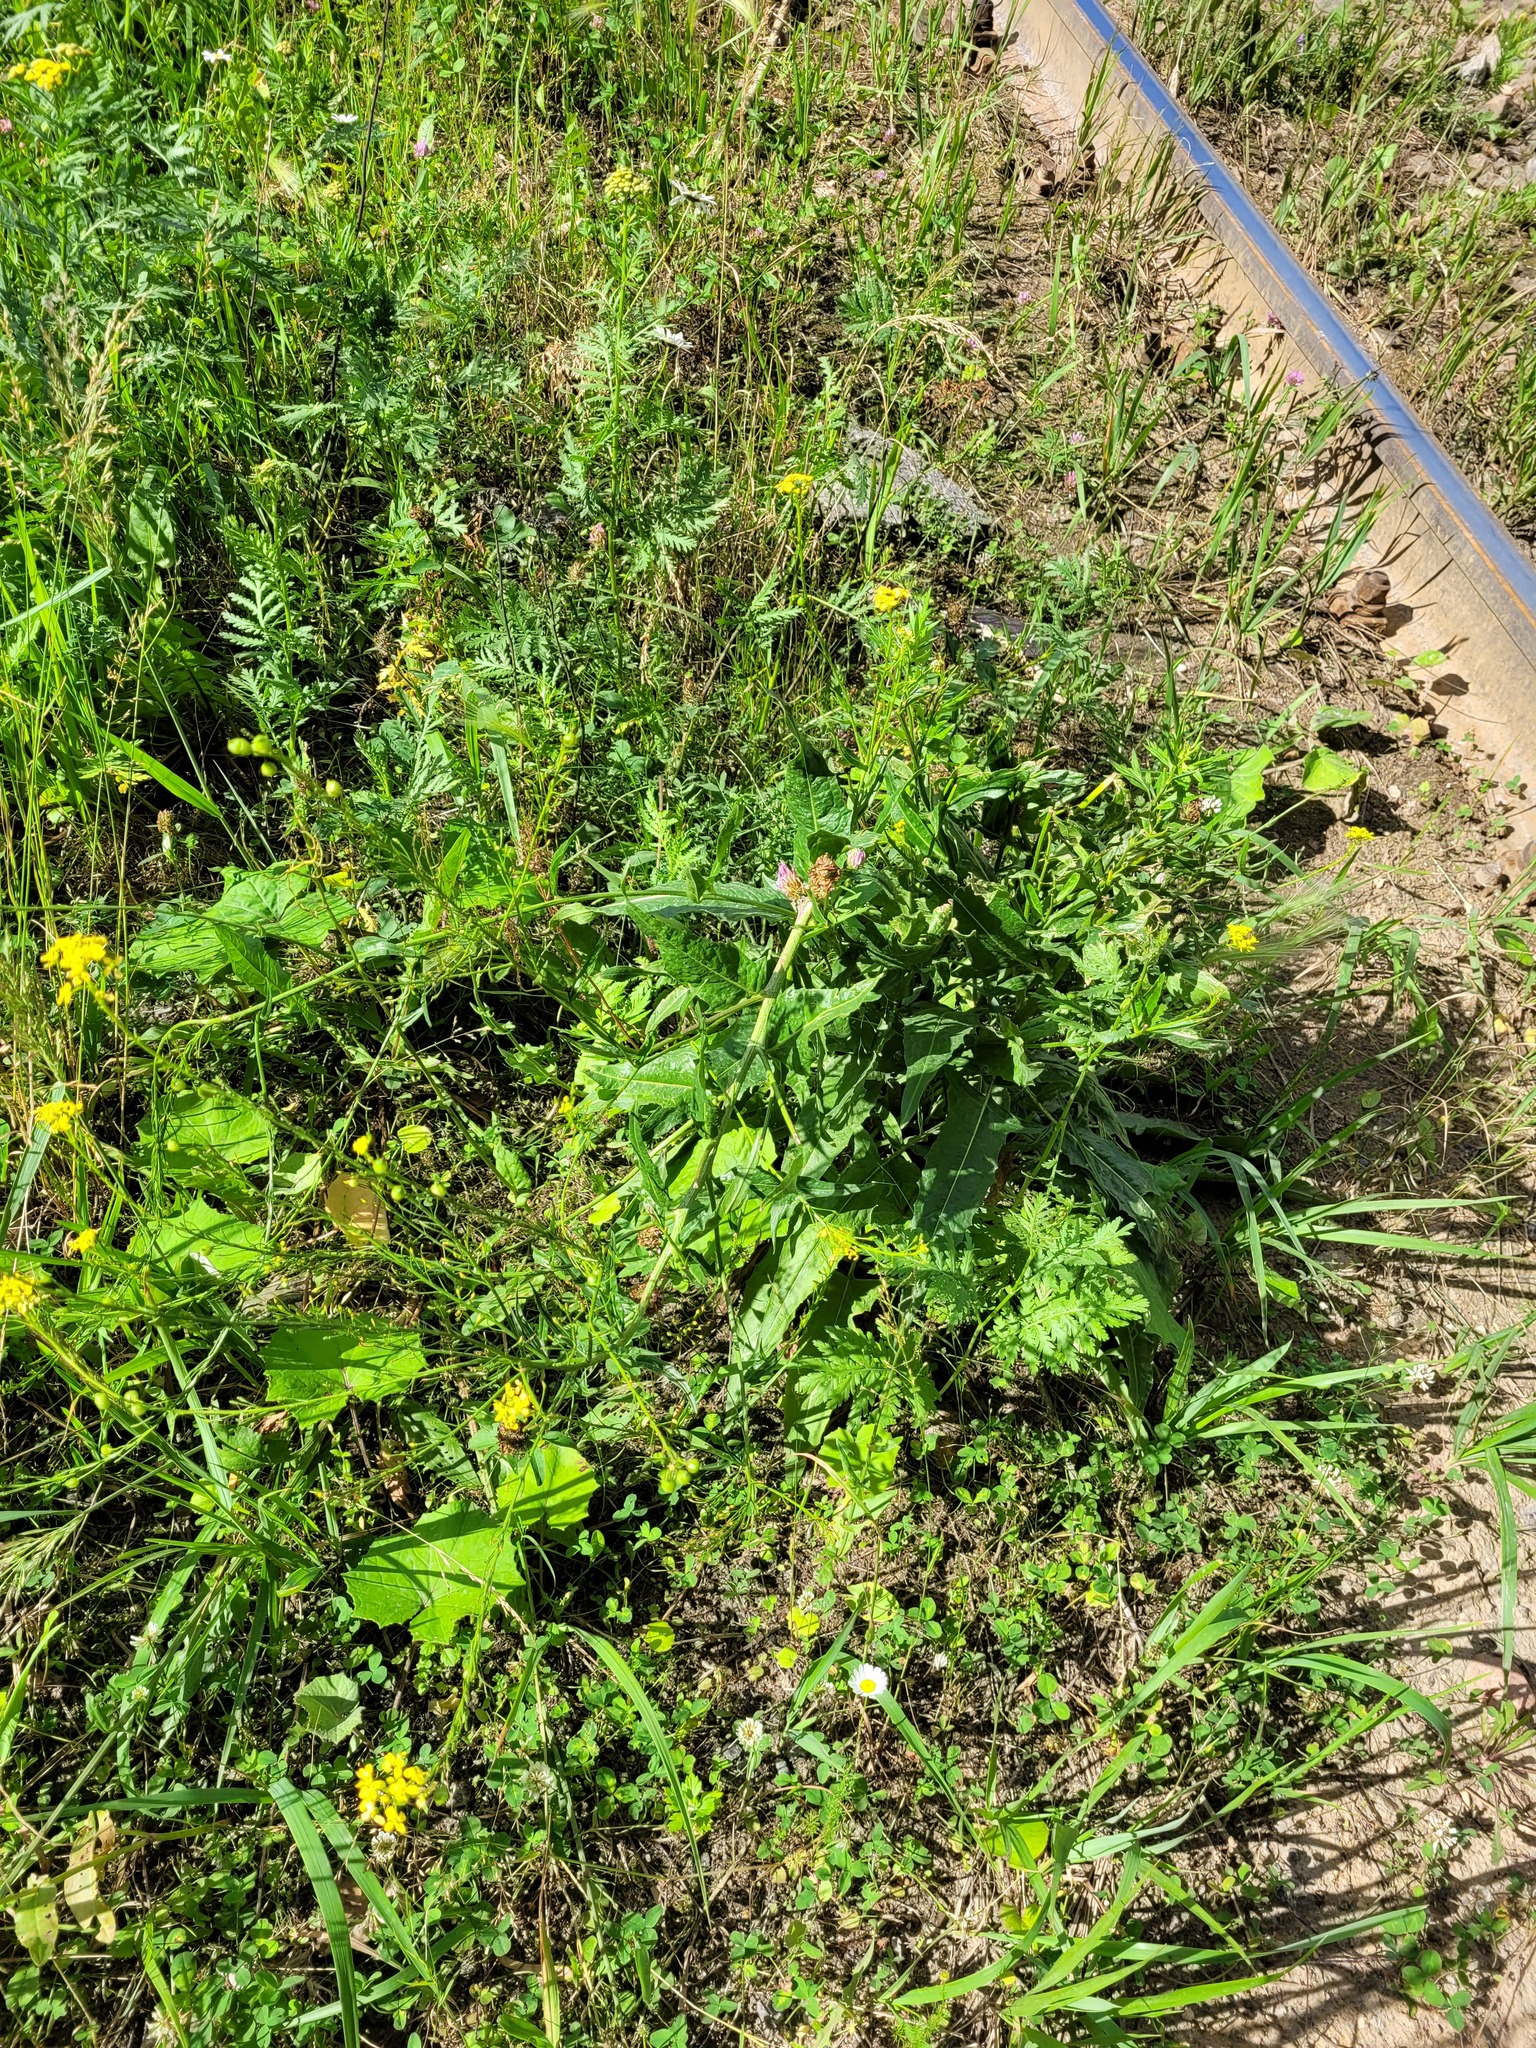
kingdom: Plantae
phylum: Tracheophyta
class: Magnoliopsida
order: Brassicales
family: Brassicaceae
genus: Bunias
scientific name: Bunias orientalis
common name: Warty-cabbage
